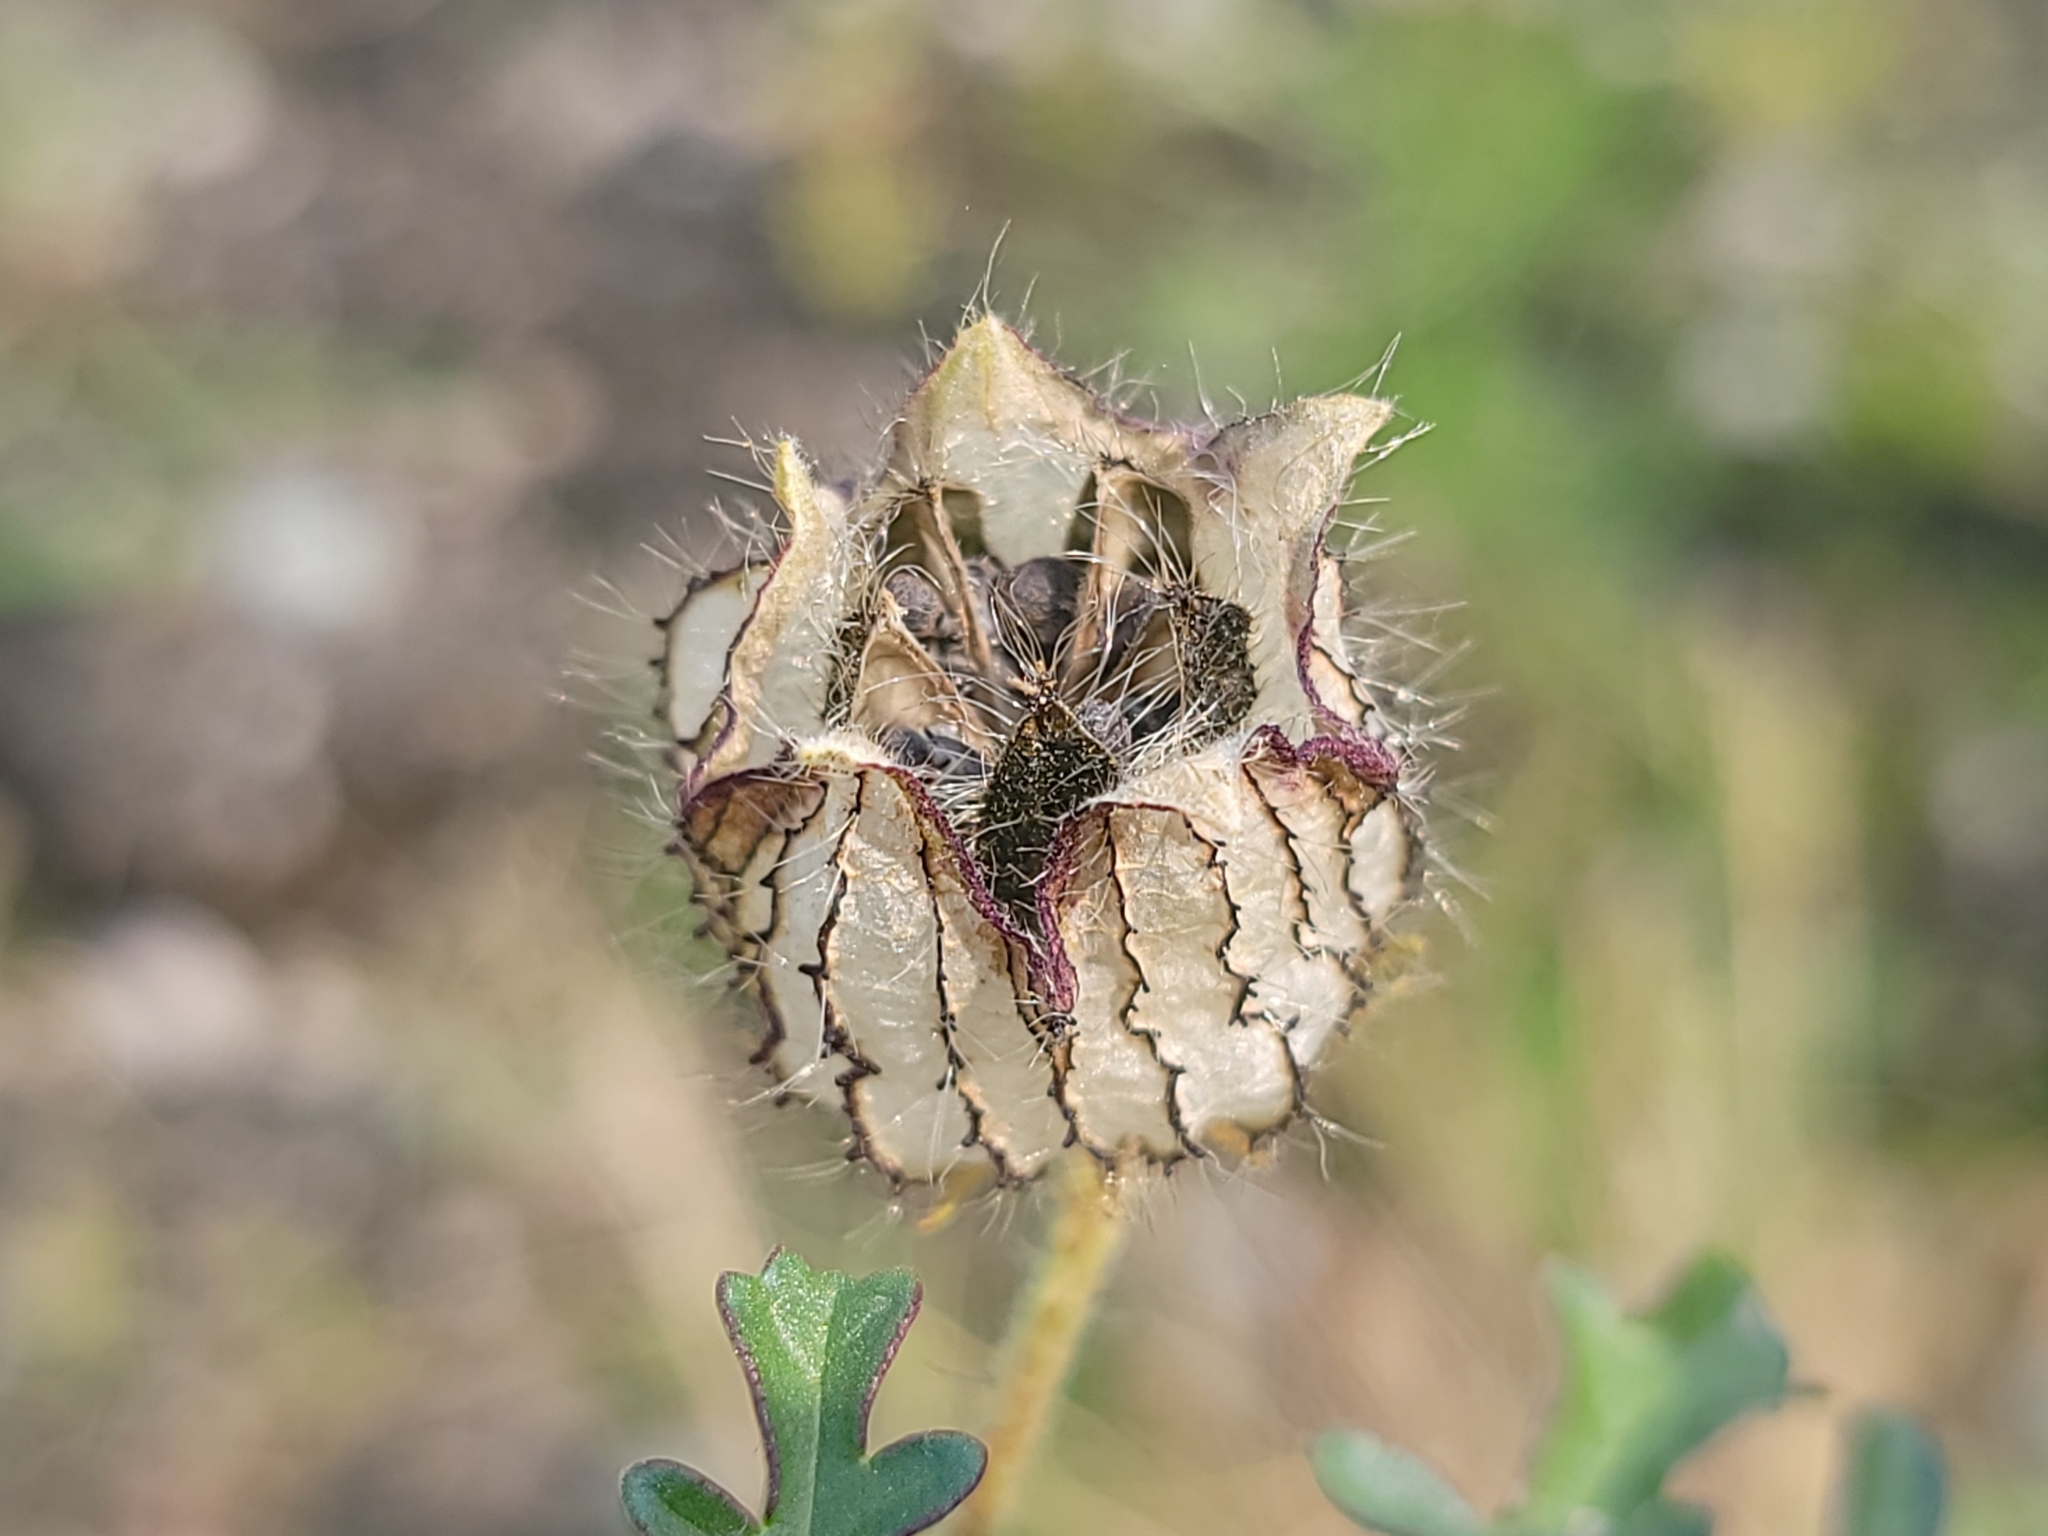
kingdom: Plantae
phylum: Tracheophyta
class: Magnoliopsida
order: Malvales
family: Malvaceae
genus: Hibiscus
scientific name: Hibiscus trionum
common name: Bladder ketmia
